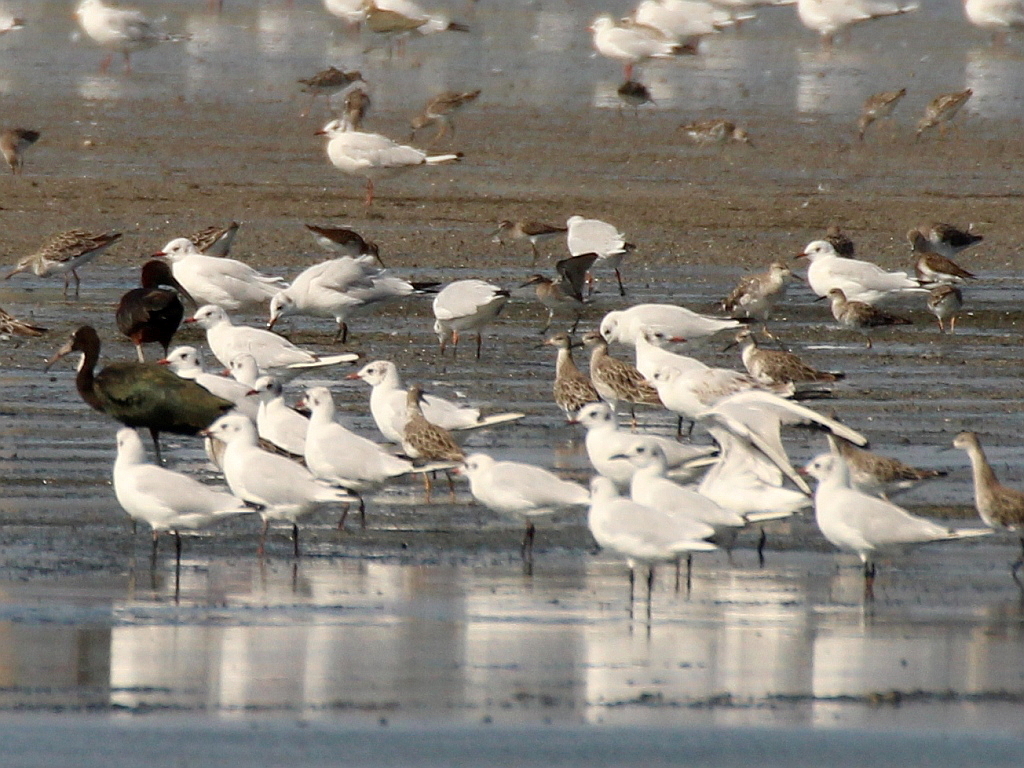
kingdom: Animalia
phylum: Chordata
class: Aves
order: Charadriiformes
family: Laridae
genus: Chroicocephalus
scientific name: Chroicocephalus ridibundus
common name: Black-headed gull
